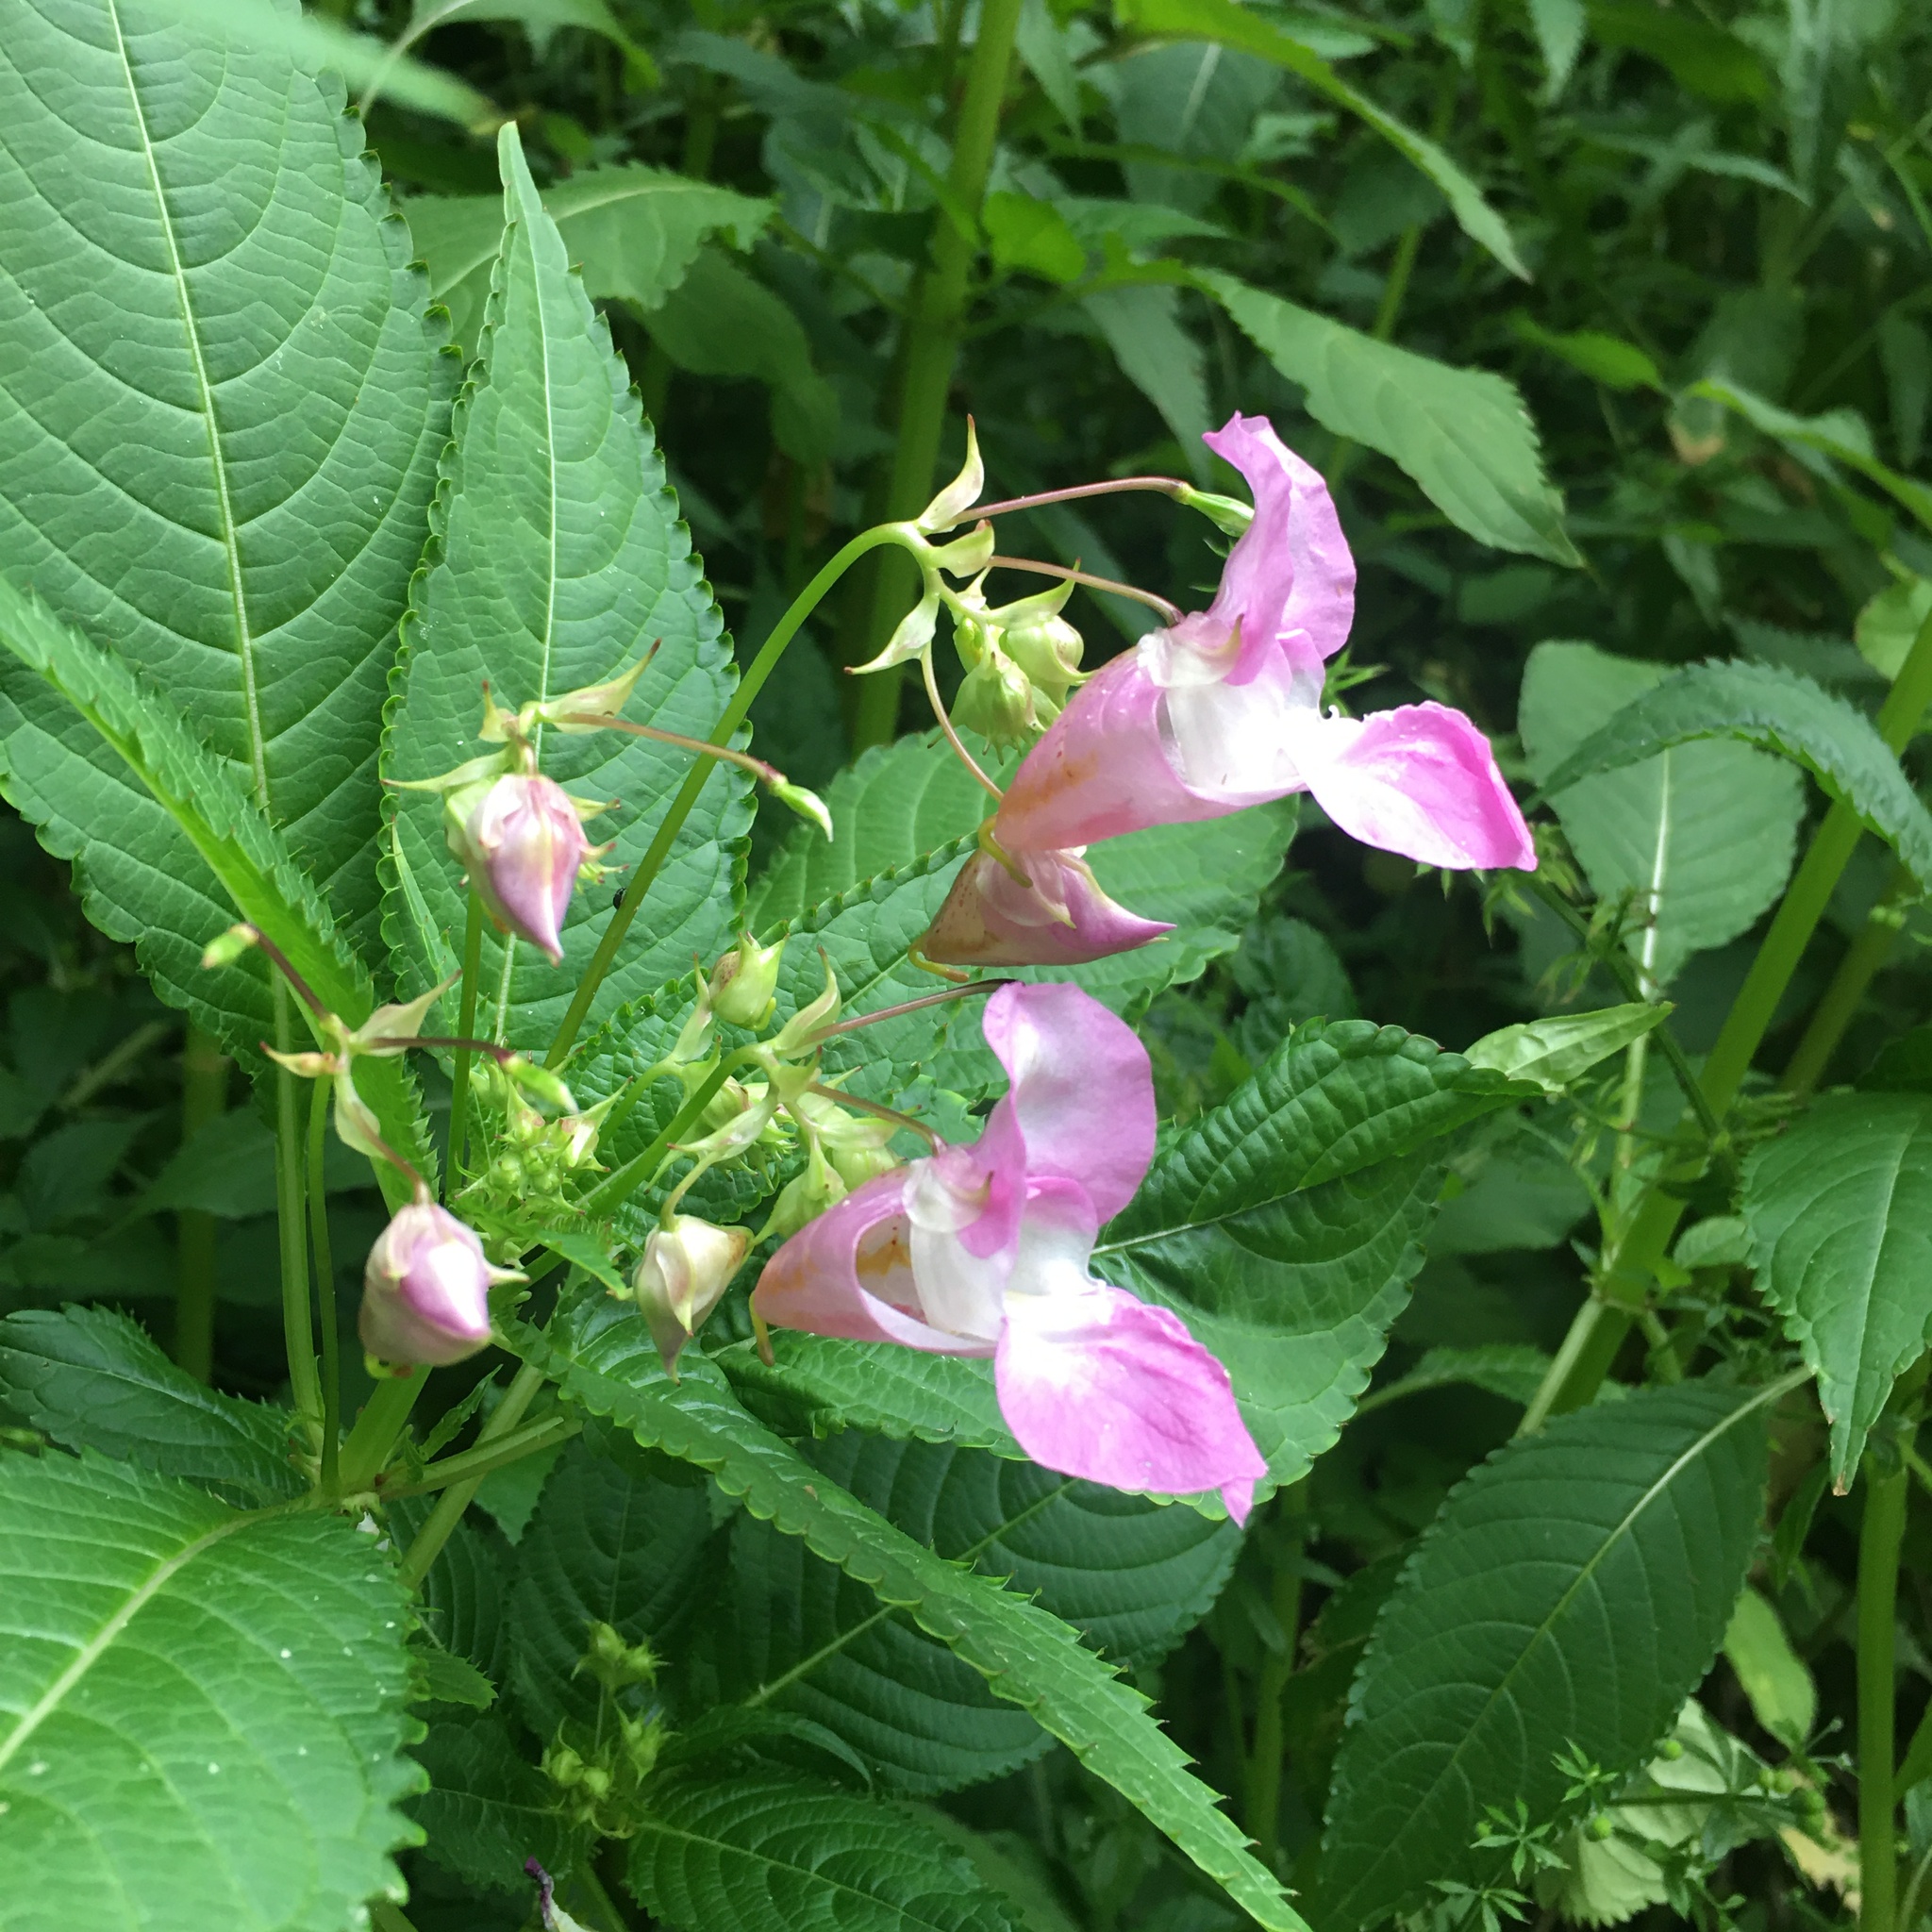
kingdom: Plantae
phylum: Tracheophyta
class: Magnoliopsida
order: Ericales
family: Balsaminaceae
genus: Impatiens
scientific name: Impatiens glandulifera
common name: Himalayan balsam
